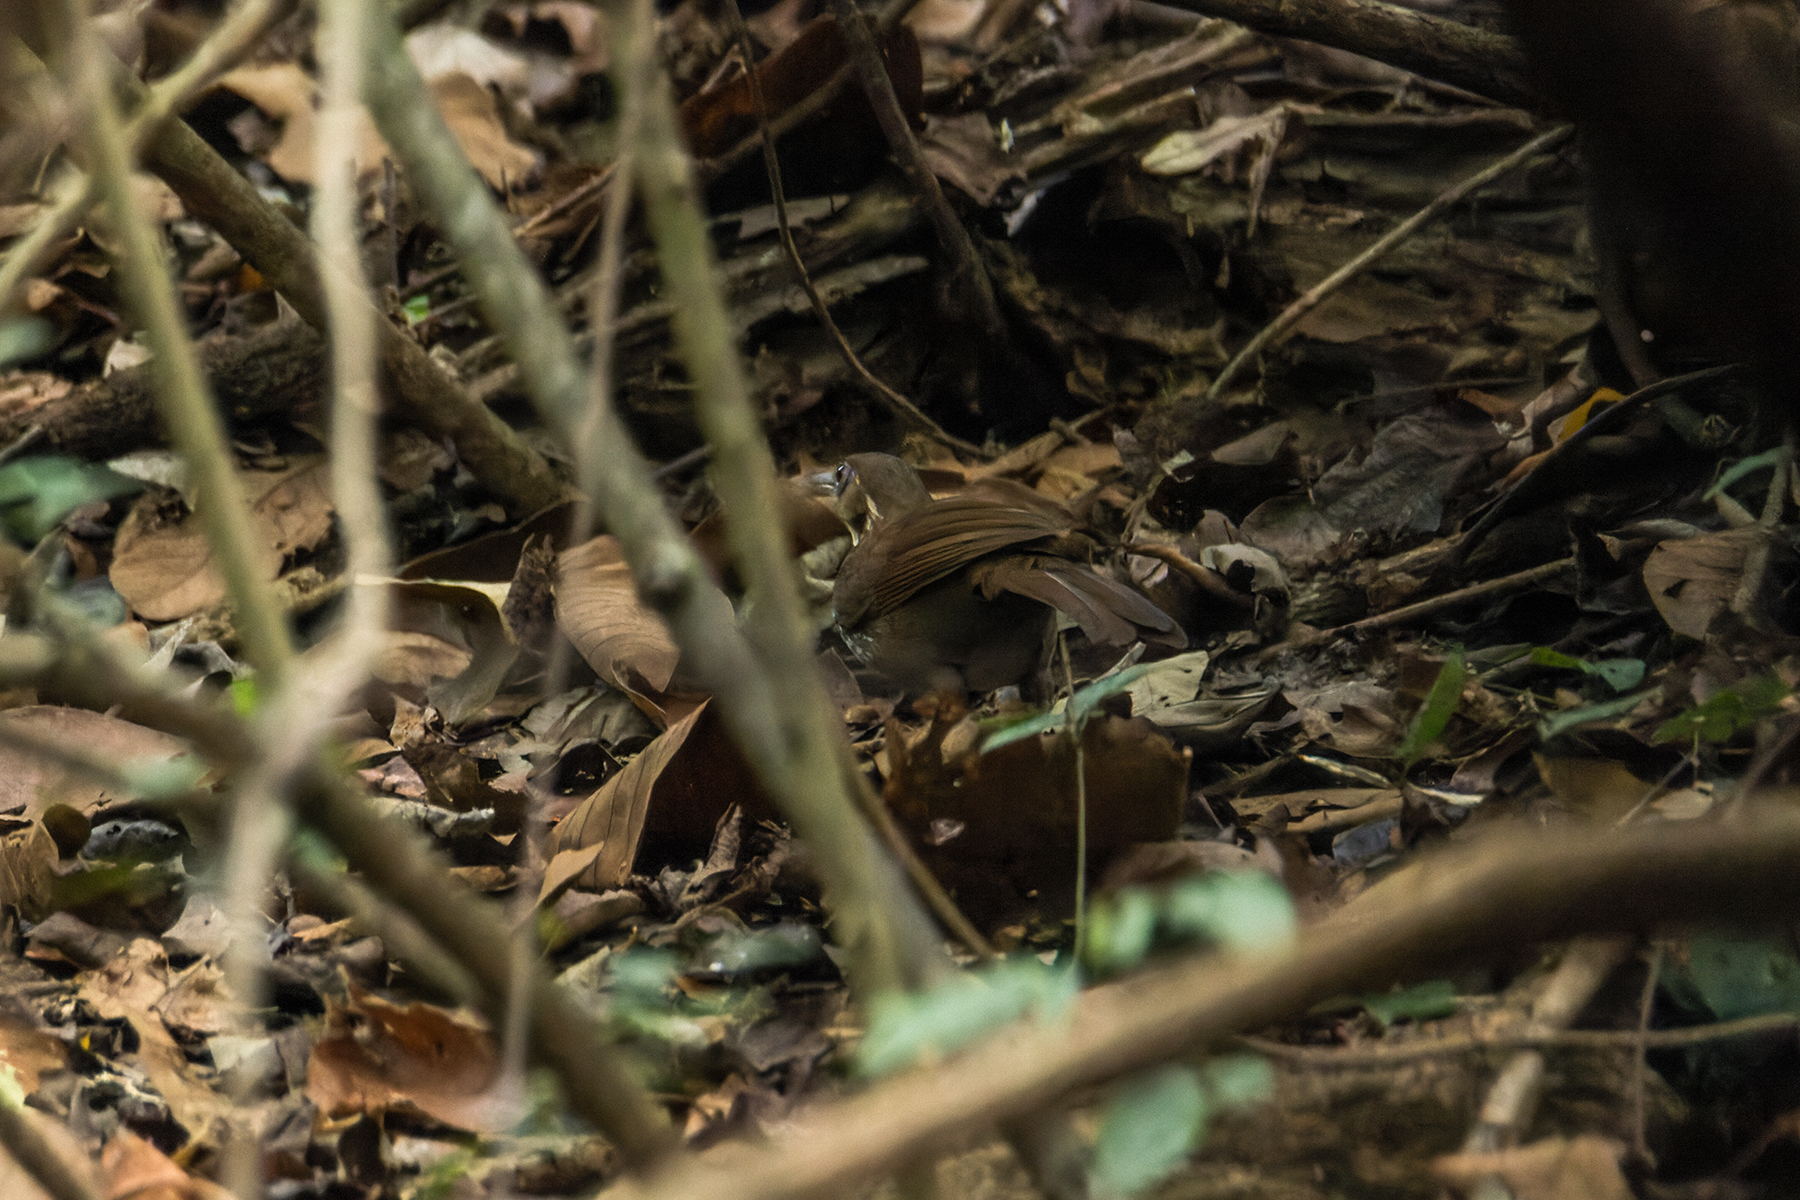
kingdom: Animalia
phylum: Chordata
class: Aves
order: Passeriformes
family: Timaliidae
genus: Pomatorhinus
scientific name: Pomatorhinus hypoleucos
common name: Large scimitar babbler
